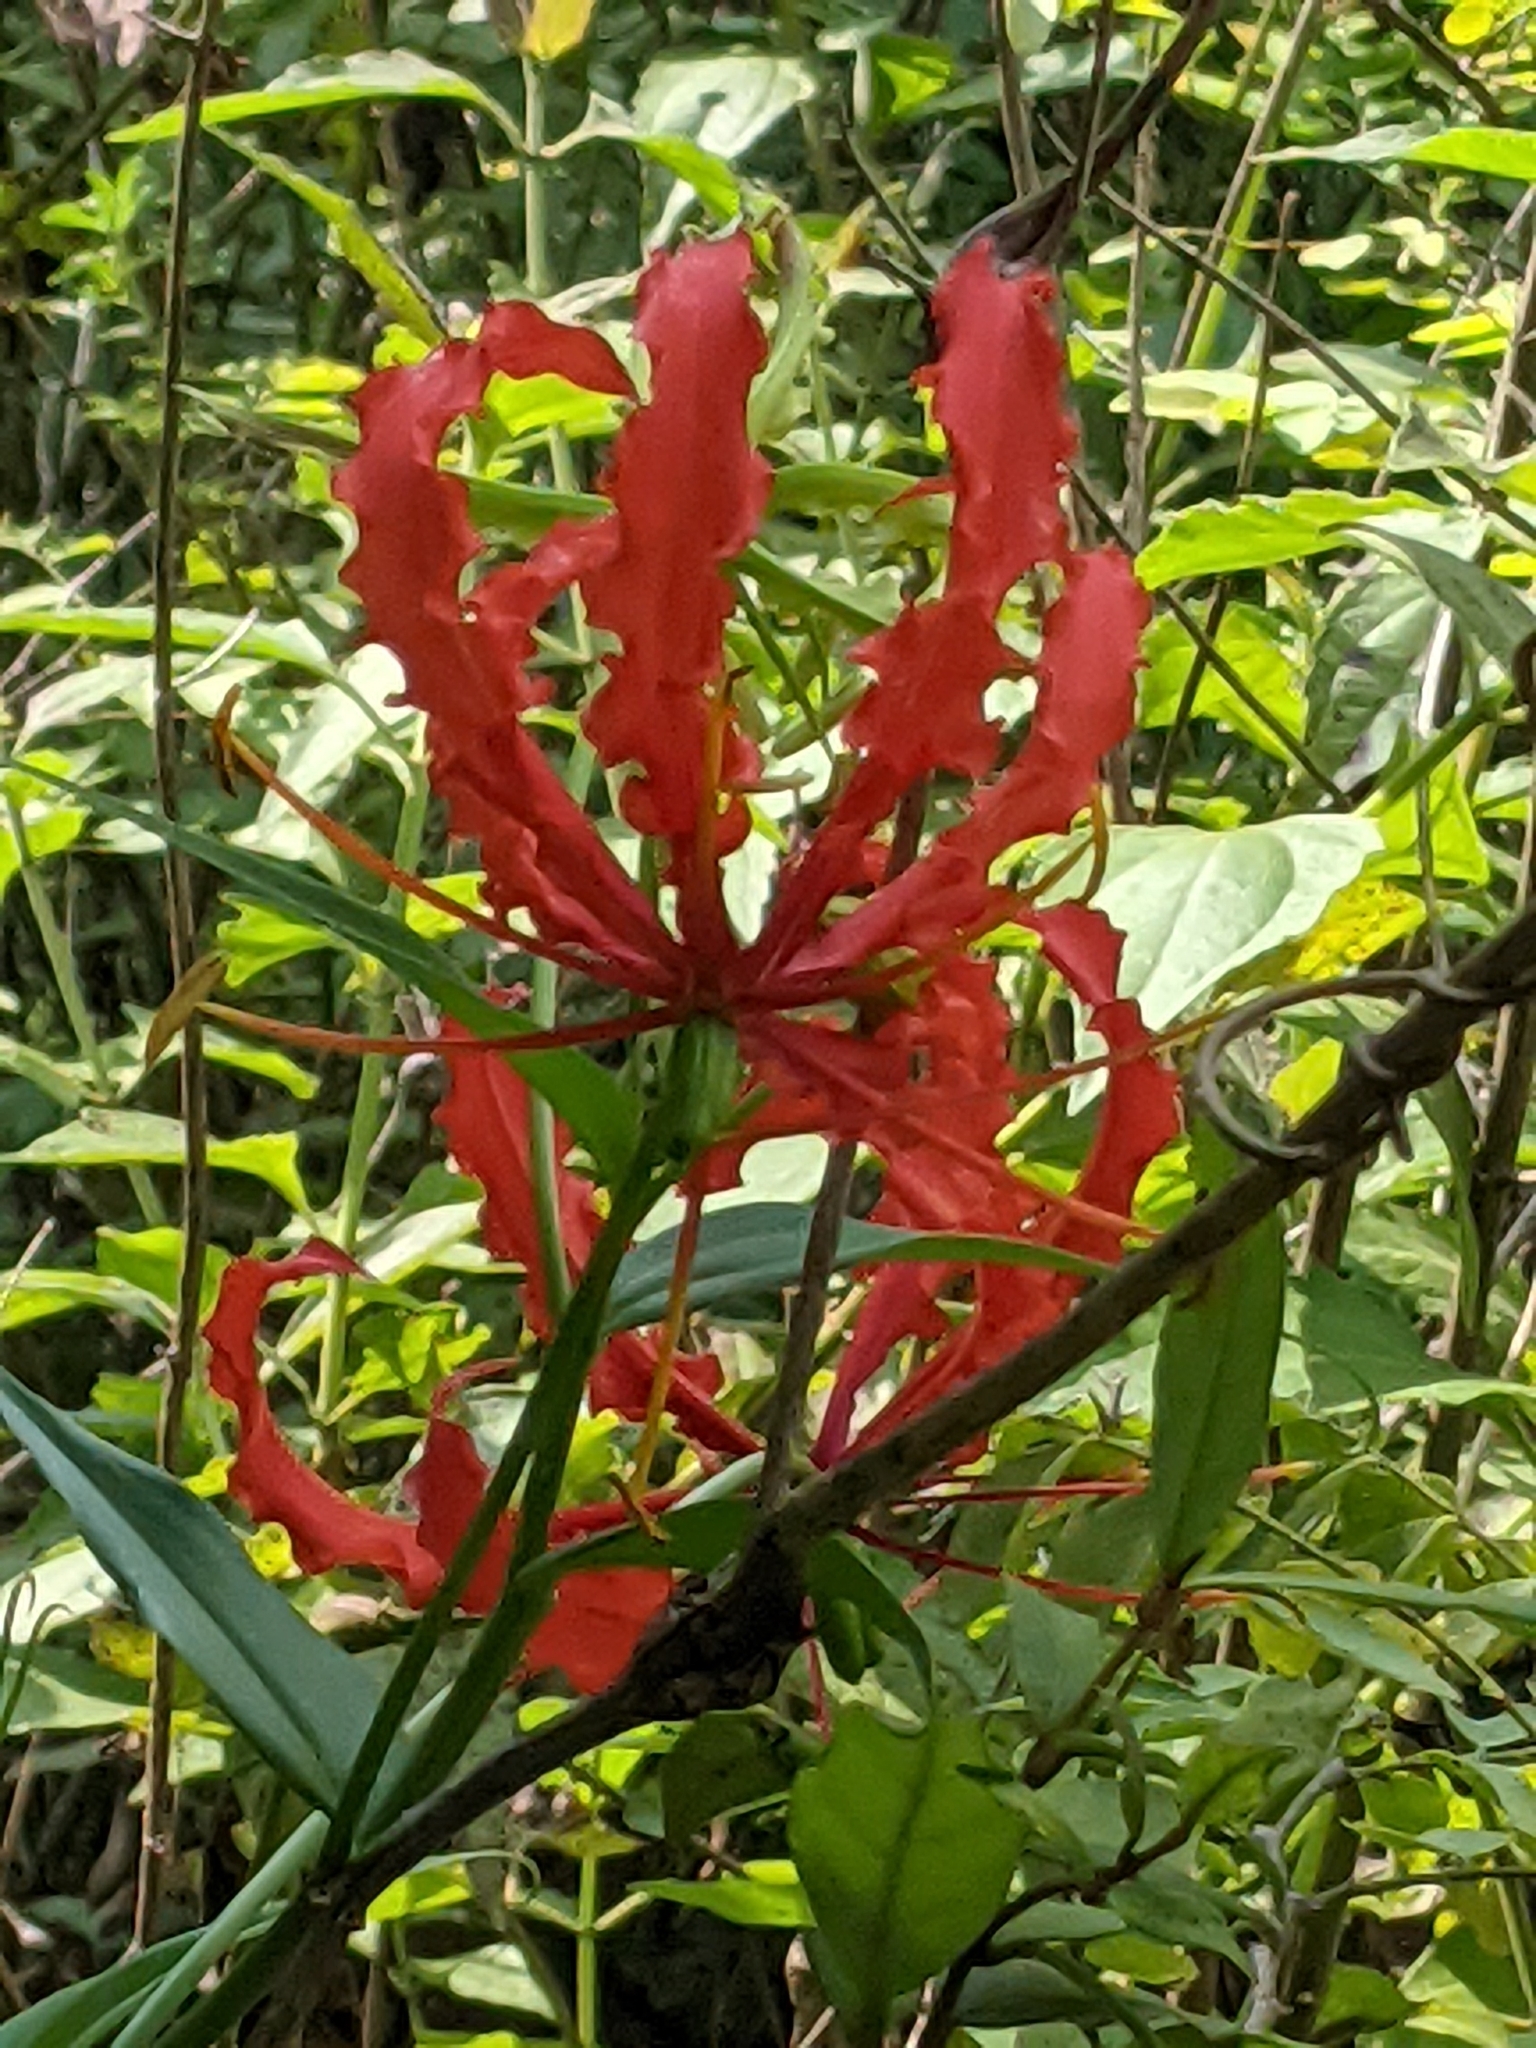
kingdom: Plantae
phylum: Tracheophyta
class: Liliopsida
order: Liliales
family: Colchicaceae
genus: Gloriosa
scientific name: Gloriosa superba
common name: Flame lily
